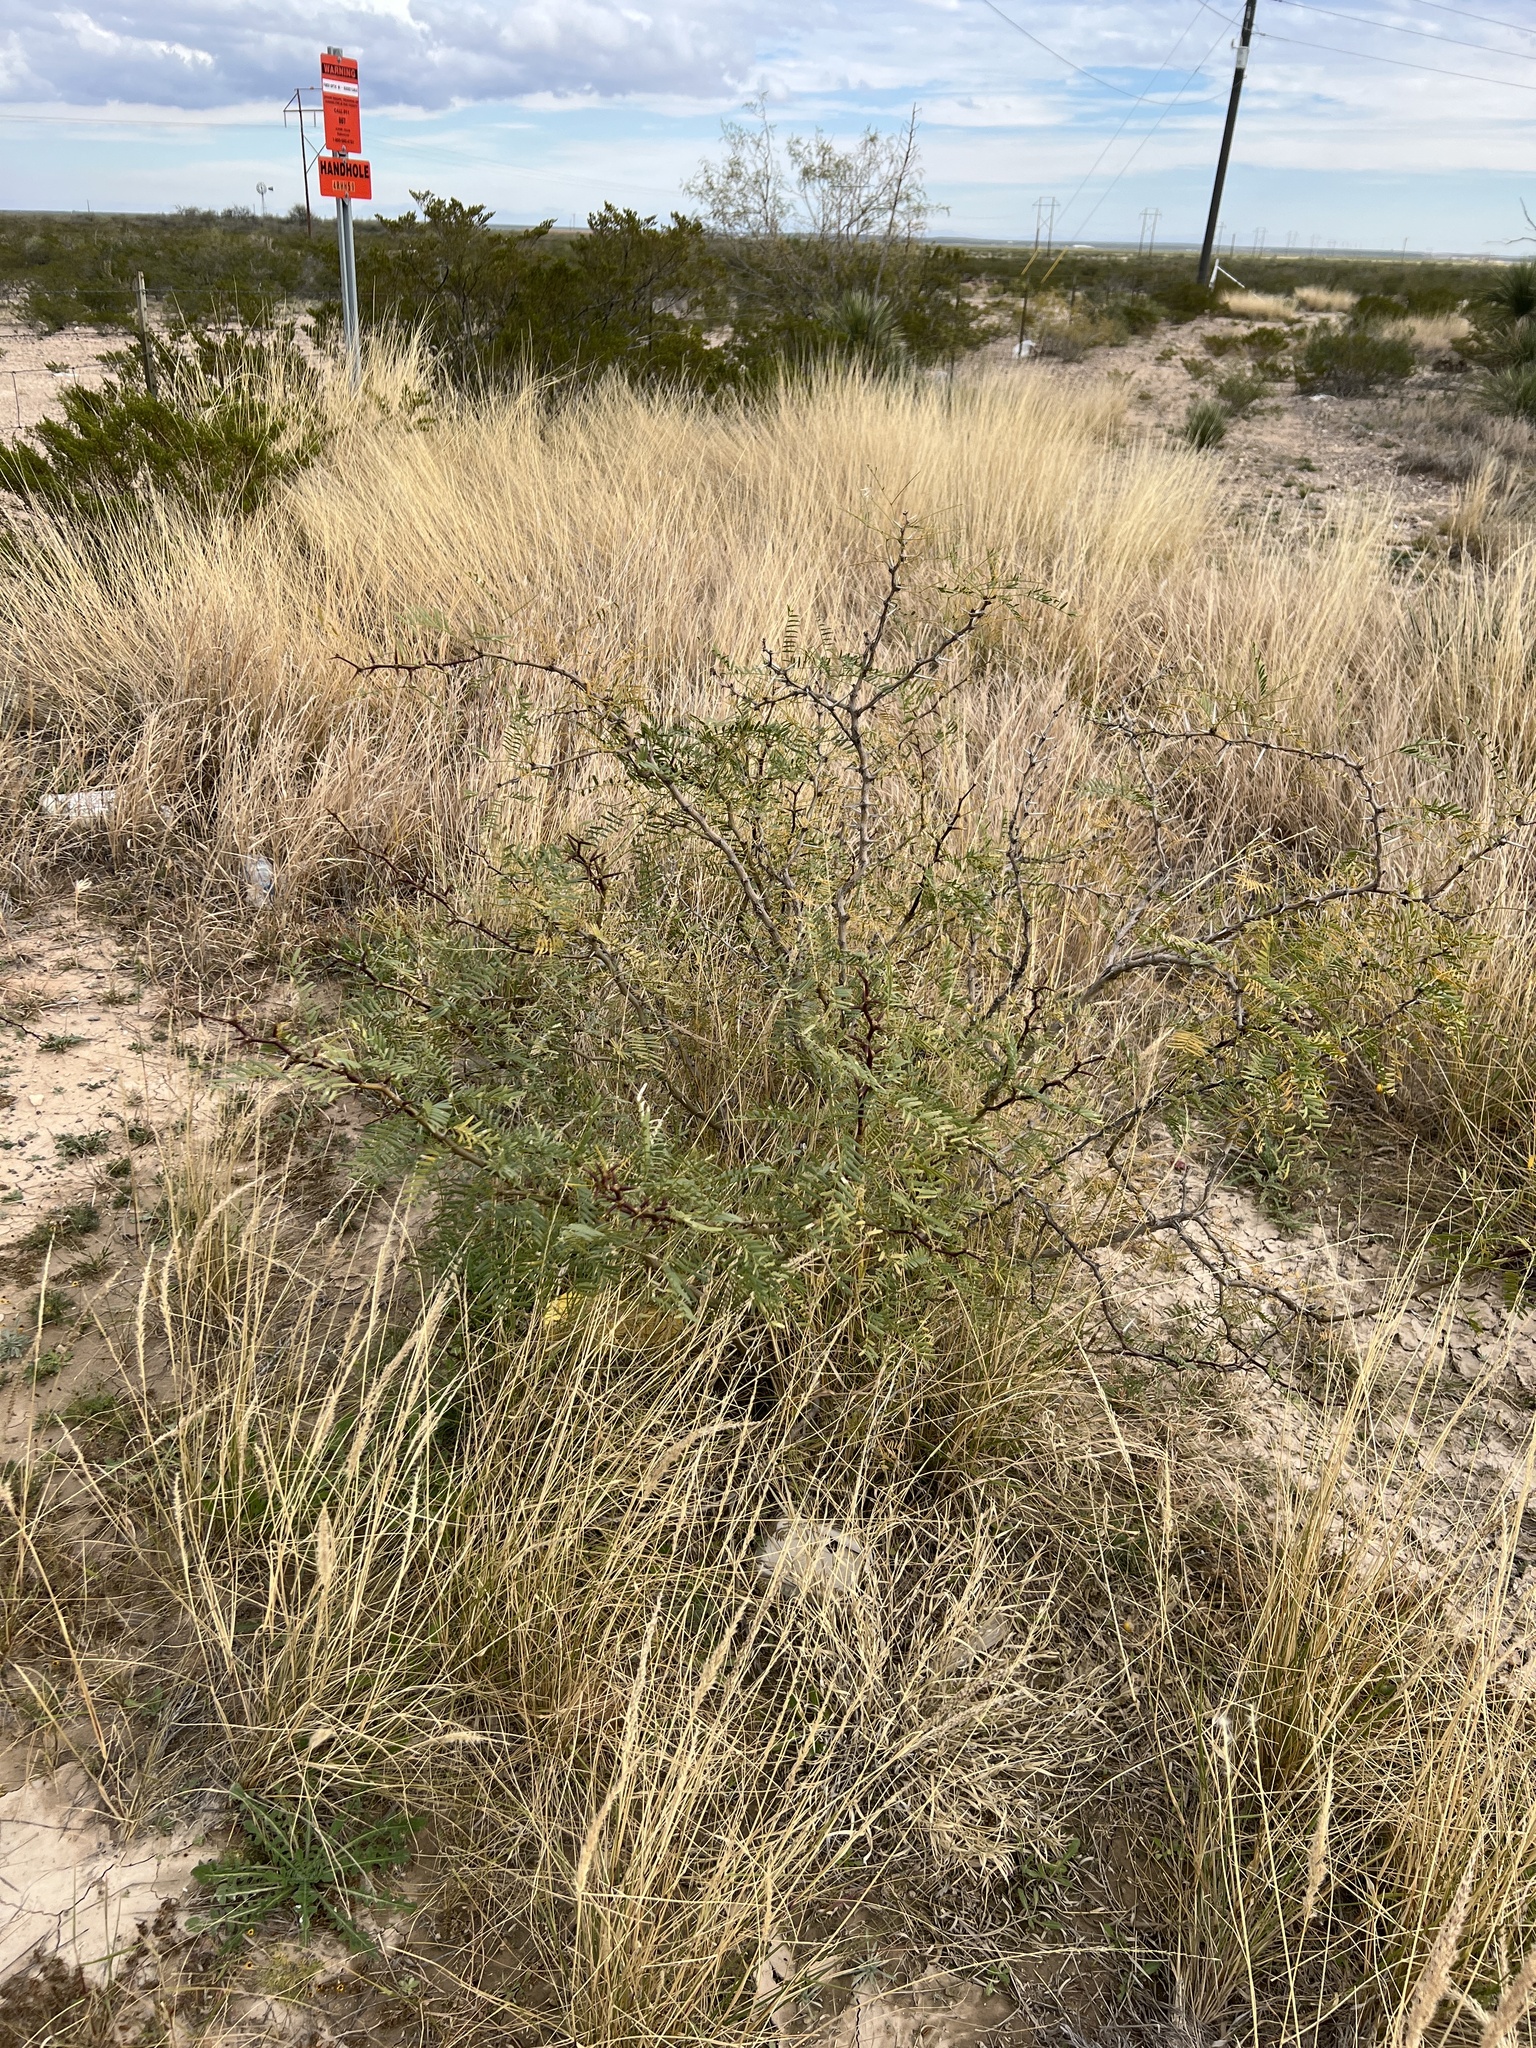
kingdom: Plantae
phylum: Tracheophyta
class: Magnoliopsida
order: Fabales
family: Fabaceae
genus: Prosopis
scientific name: Prosopis glandulosa
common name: Honey mesquite
